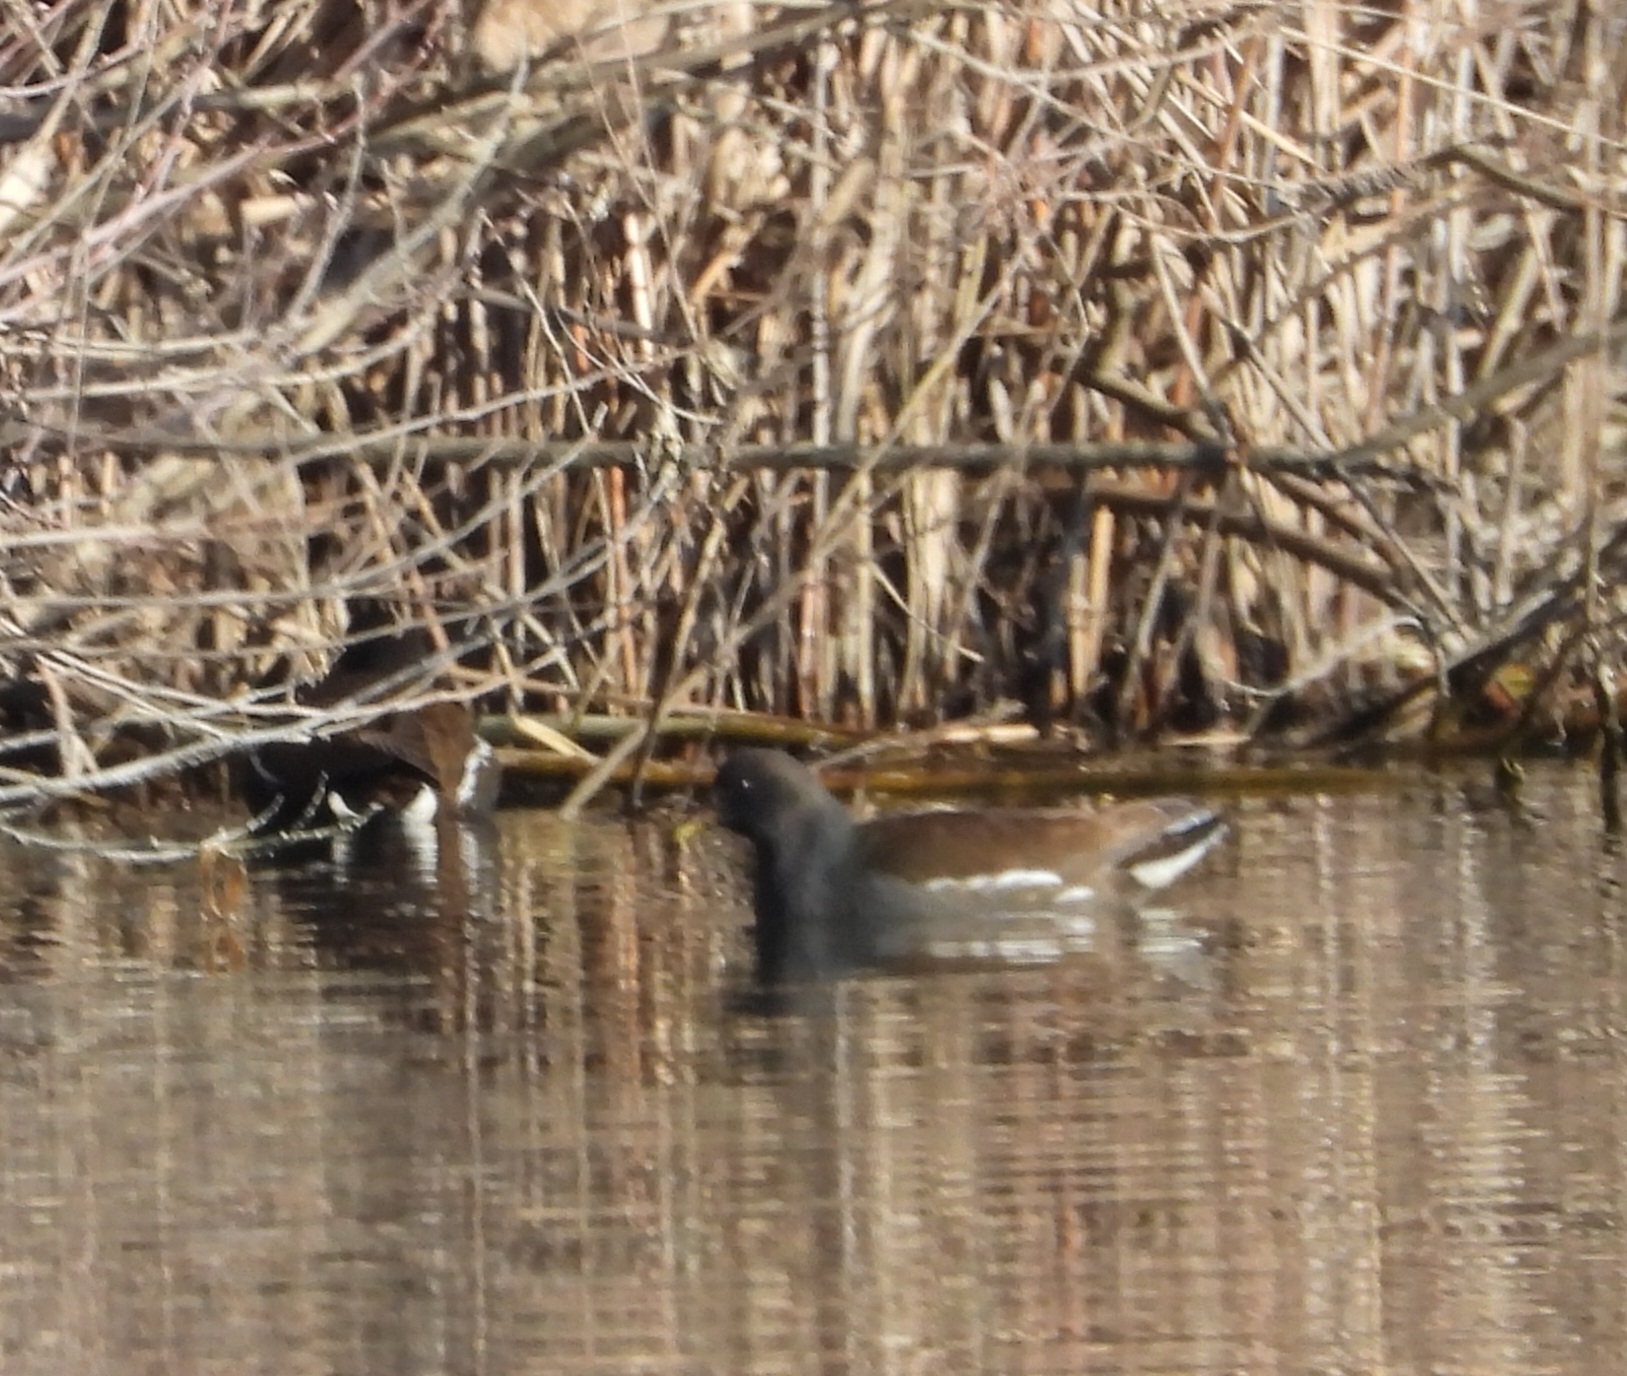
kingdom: Animalia
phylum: Chordata
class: Aves
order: Gruiformes
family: Rallidae
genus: Gallinula
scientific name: Gallinula chloropus
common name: Common moorhen
